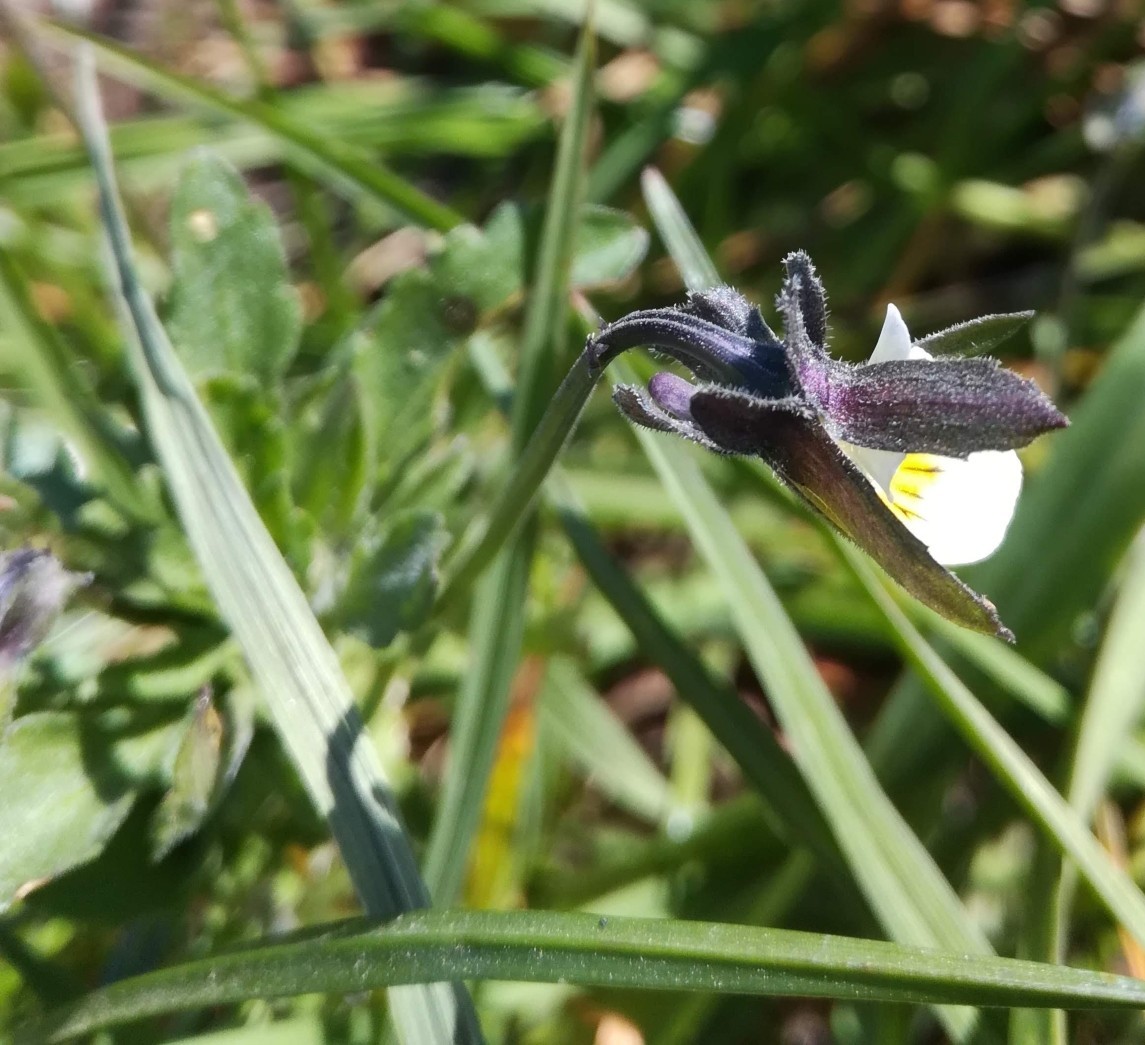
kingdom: Plantae
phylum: Tracheophyta
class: Magnoliopsida
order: Malpighiales
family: Violaceae
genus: Viola
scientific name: Viola arvensis
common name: Field pansy
